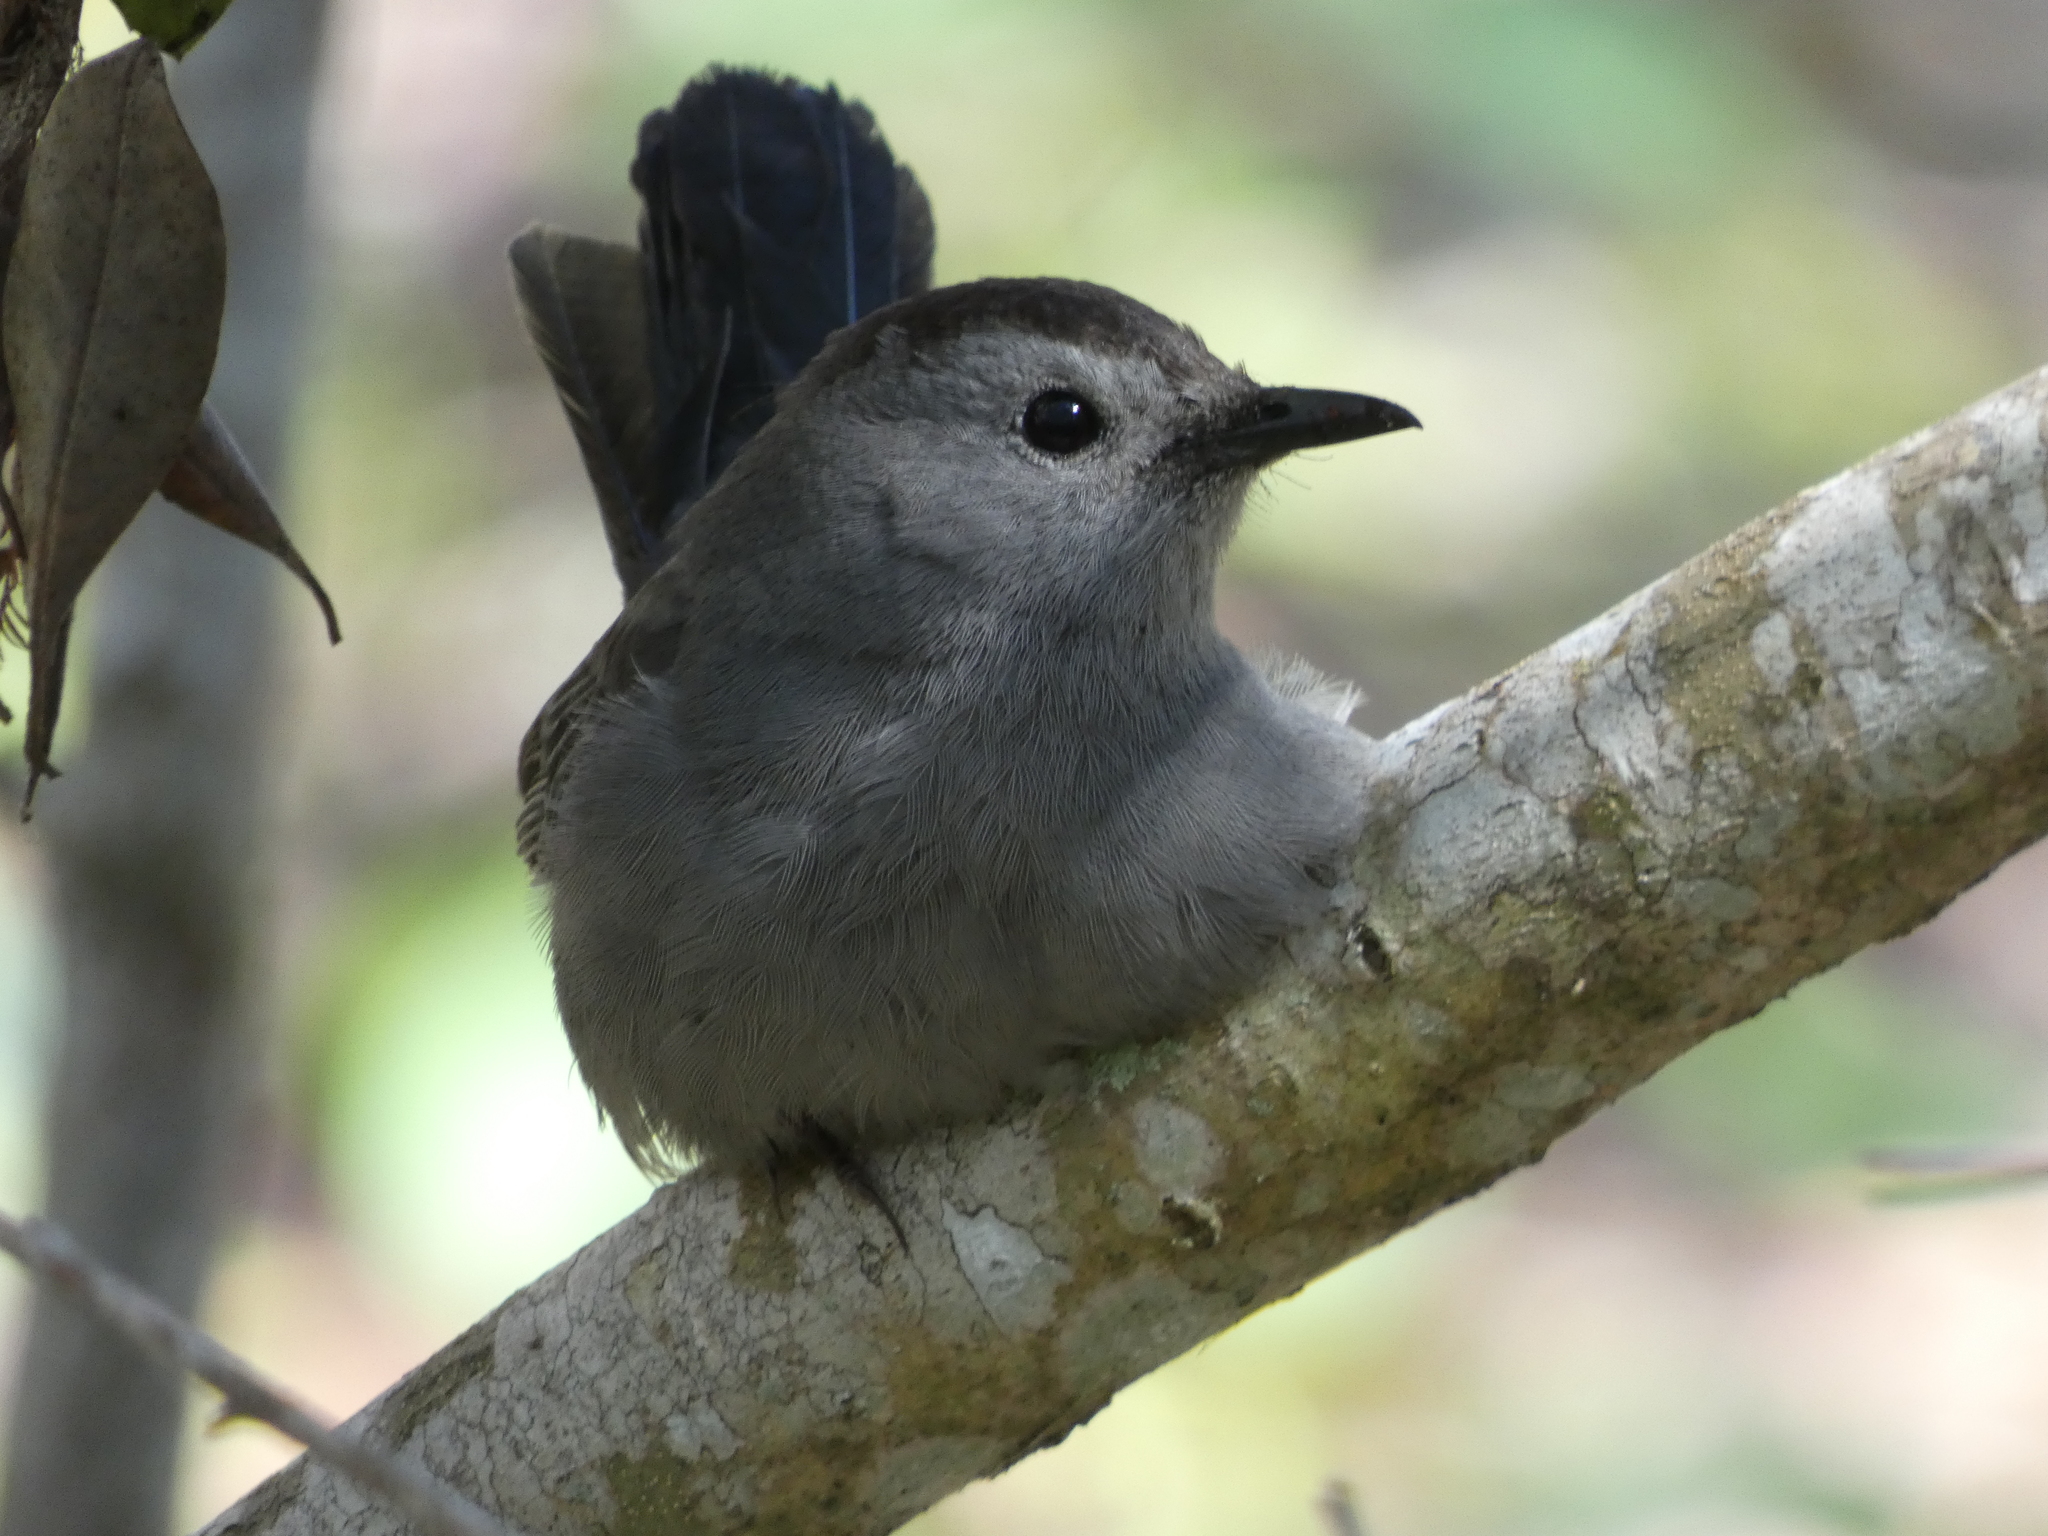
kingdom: Animalia
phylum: Chordata
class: Aves
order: Passeriformes
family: Mimidae
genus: Dumetella
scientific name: Dumetella carolinensis
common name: Gray catbird
